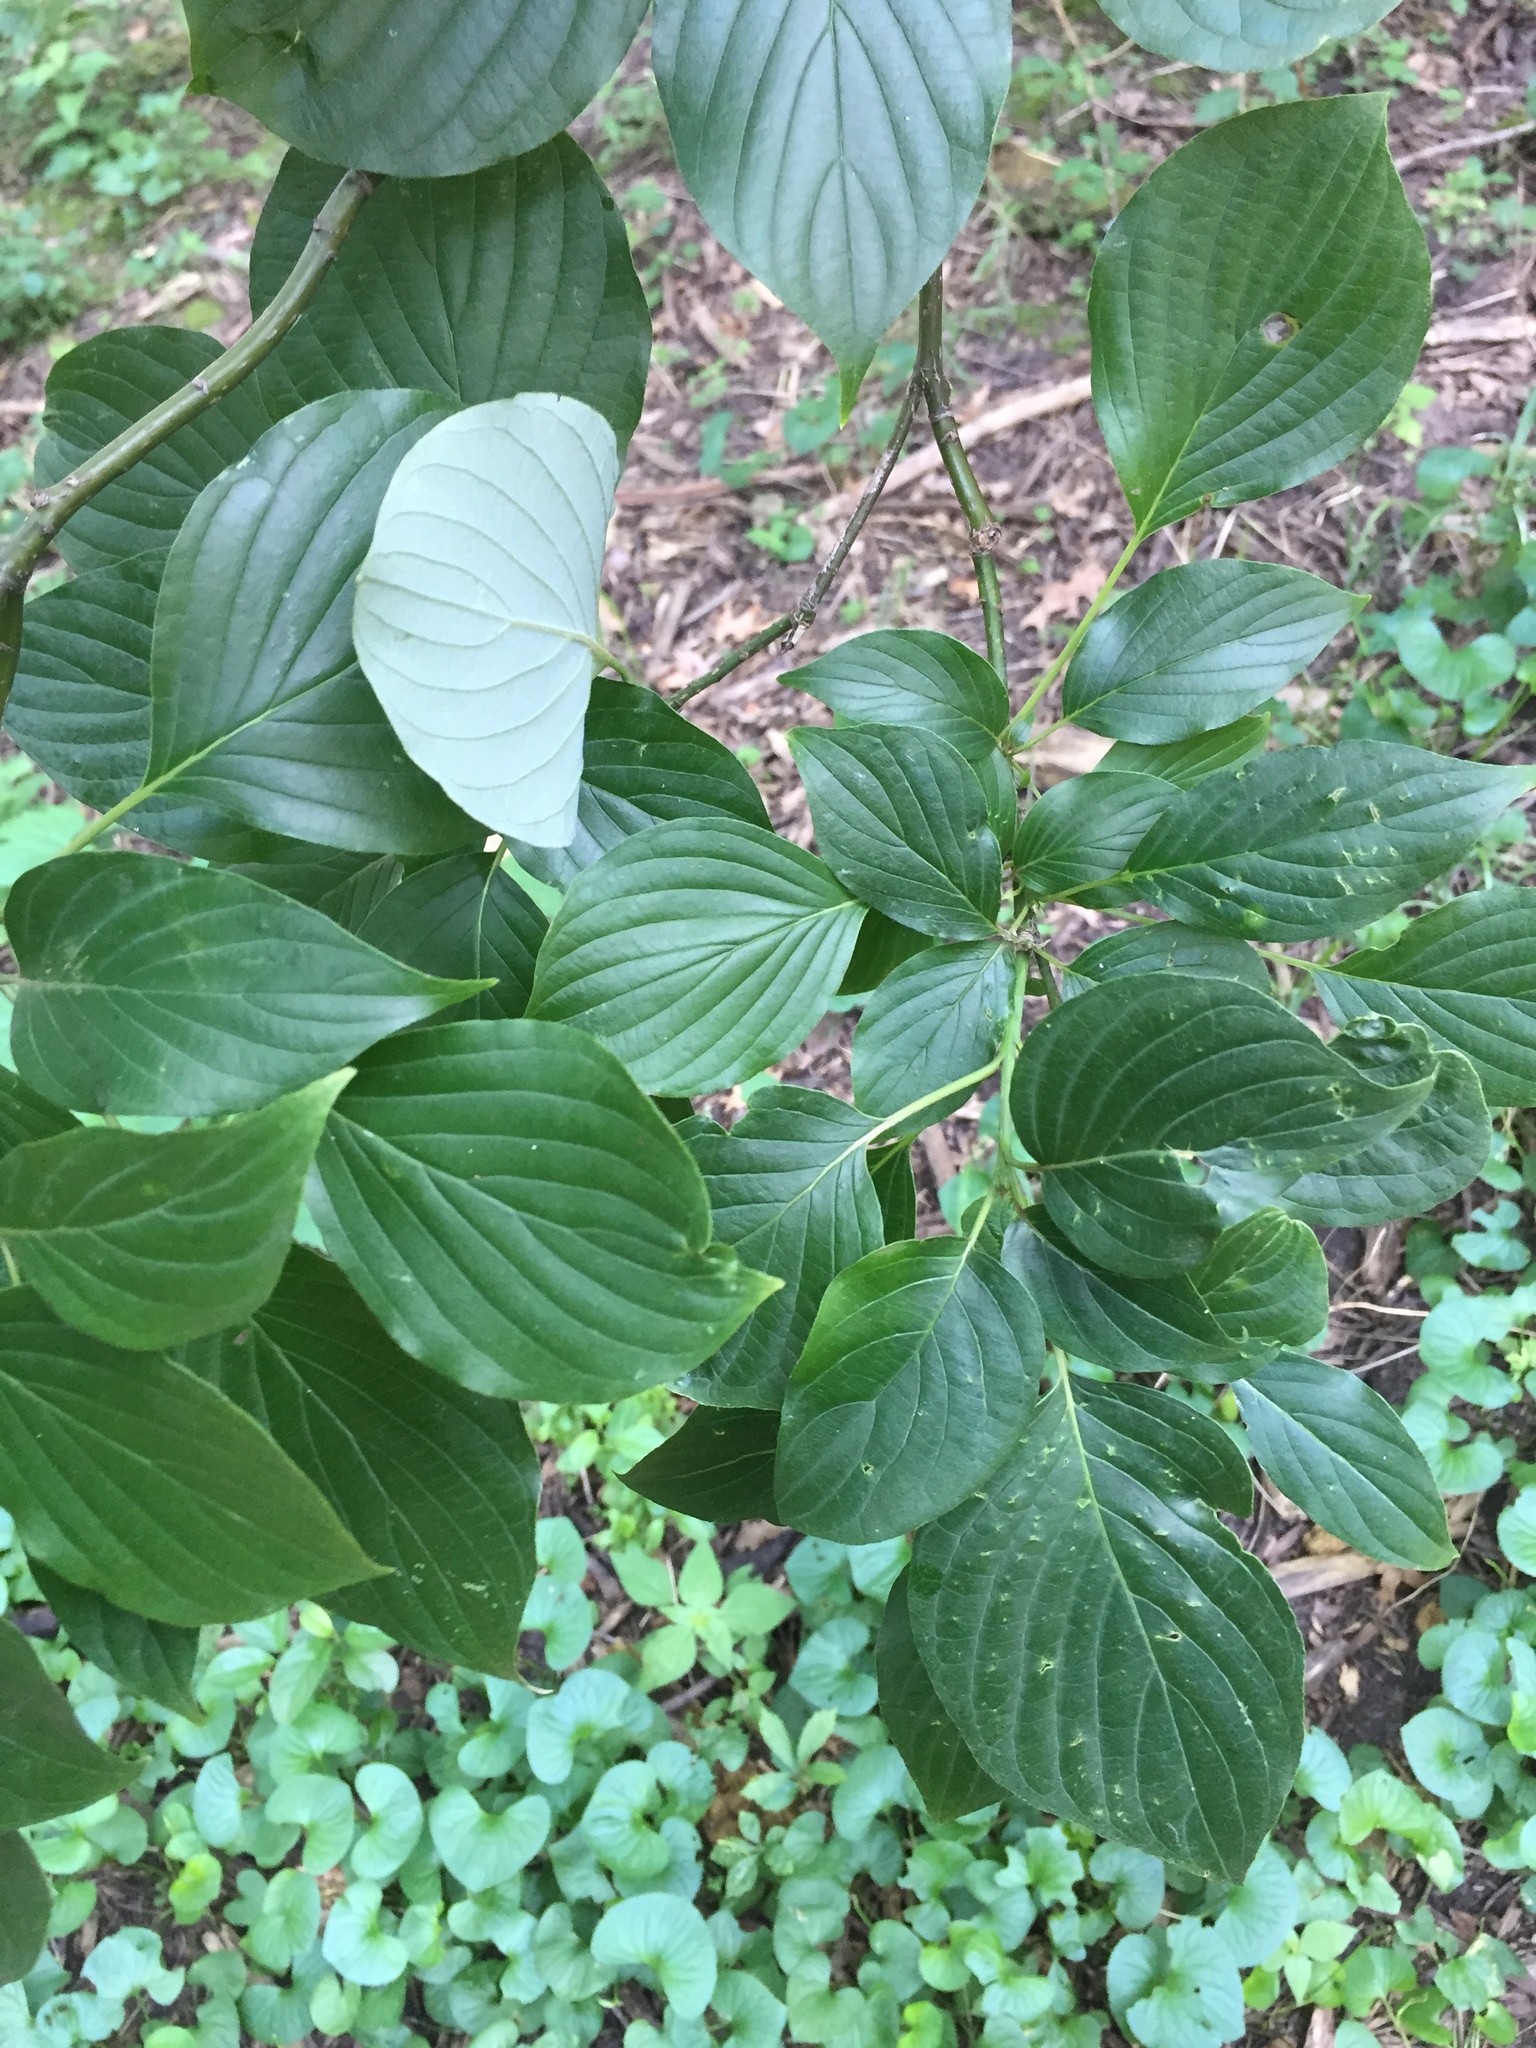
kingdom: Plantae
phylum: Tracheophyta
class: Magnoliopsida
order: Cornales
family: Cornaceae
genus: Cornus
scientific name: Cornus alternifolia
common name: Pagoda dogwood
